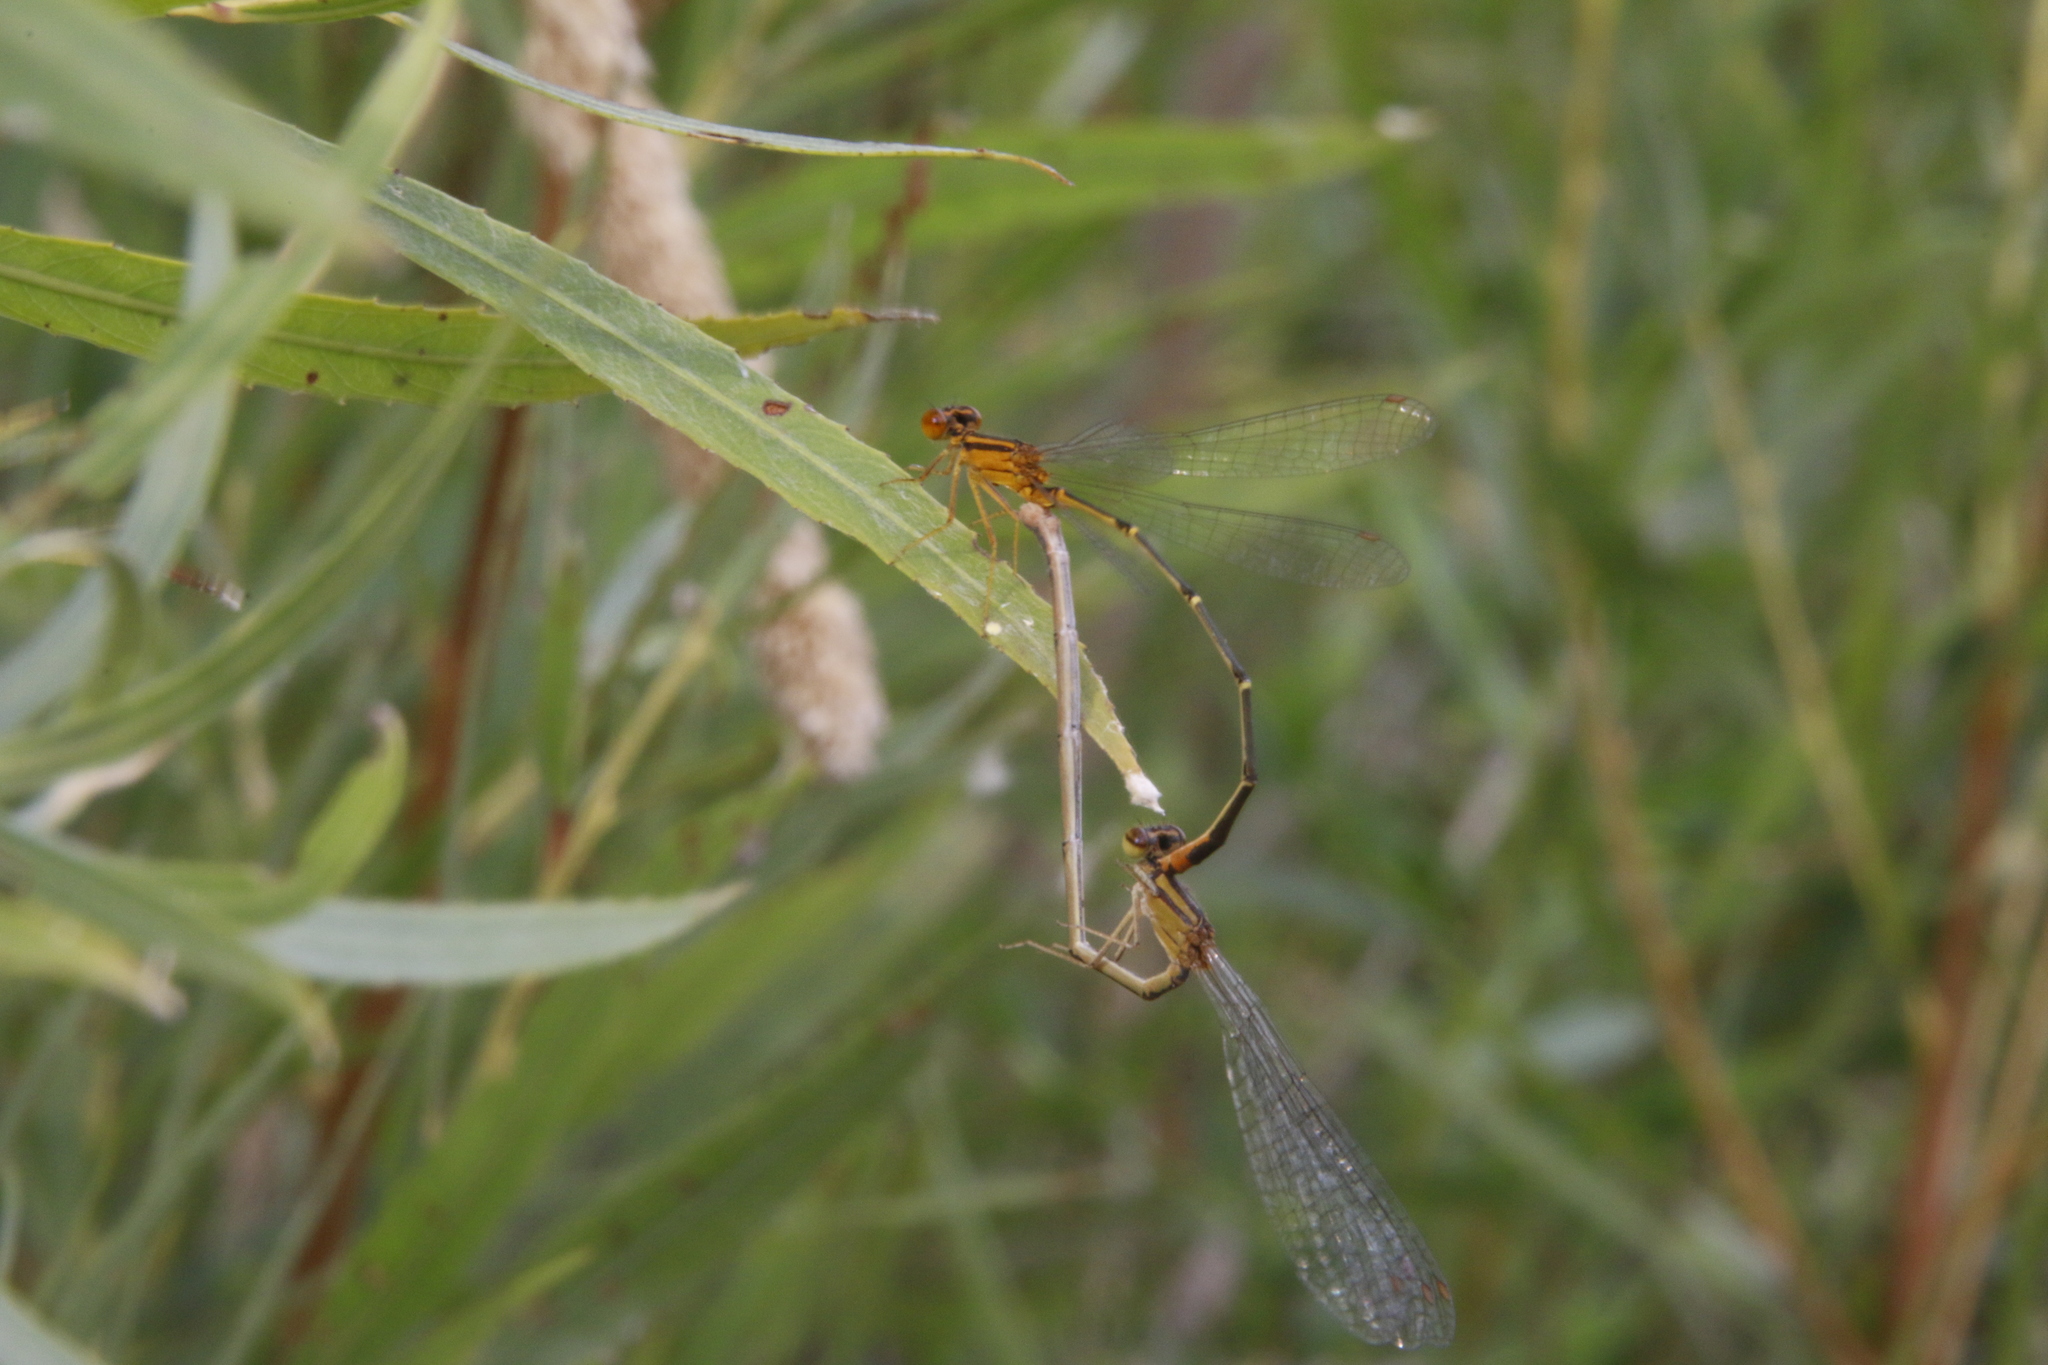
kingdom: Animalia
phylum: Arthropoda
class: Insecta
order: Odonata
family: Coenagrionidae
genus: Enallagma
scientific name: Enallagma signatum
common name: Orange bluet
